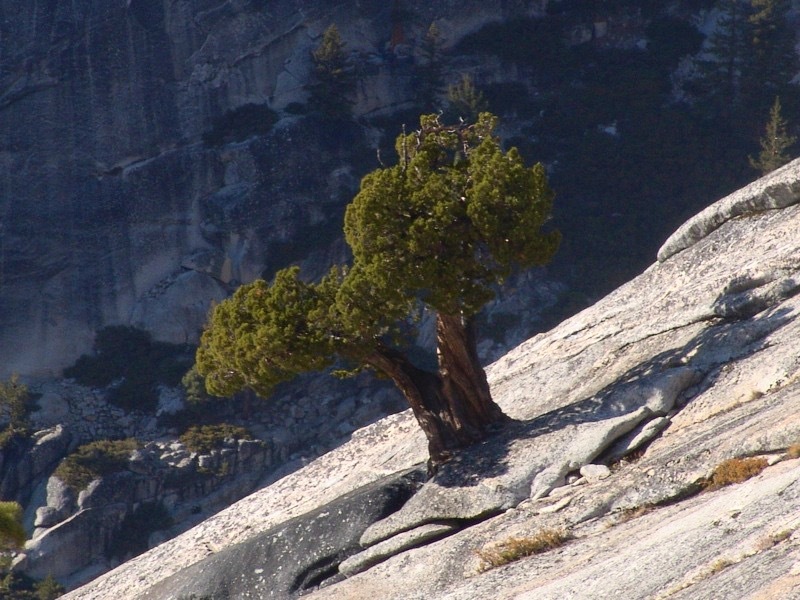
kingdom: Plantae
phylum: Tracheophyta
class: Pinopsida
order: Pinales
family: Cupressaceae
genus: Juniperus
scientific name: Juniperus occidentalis
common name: Western juniper
